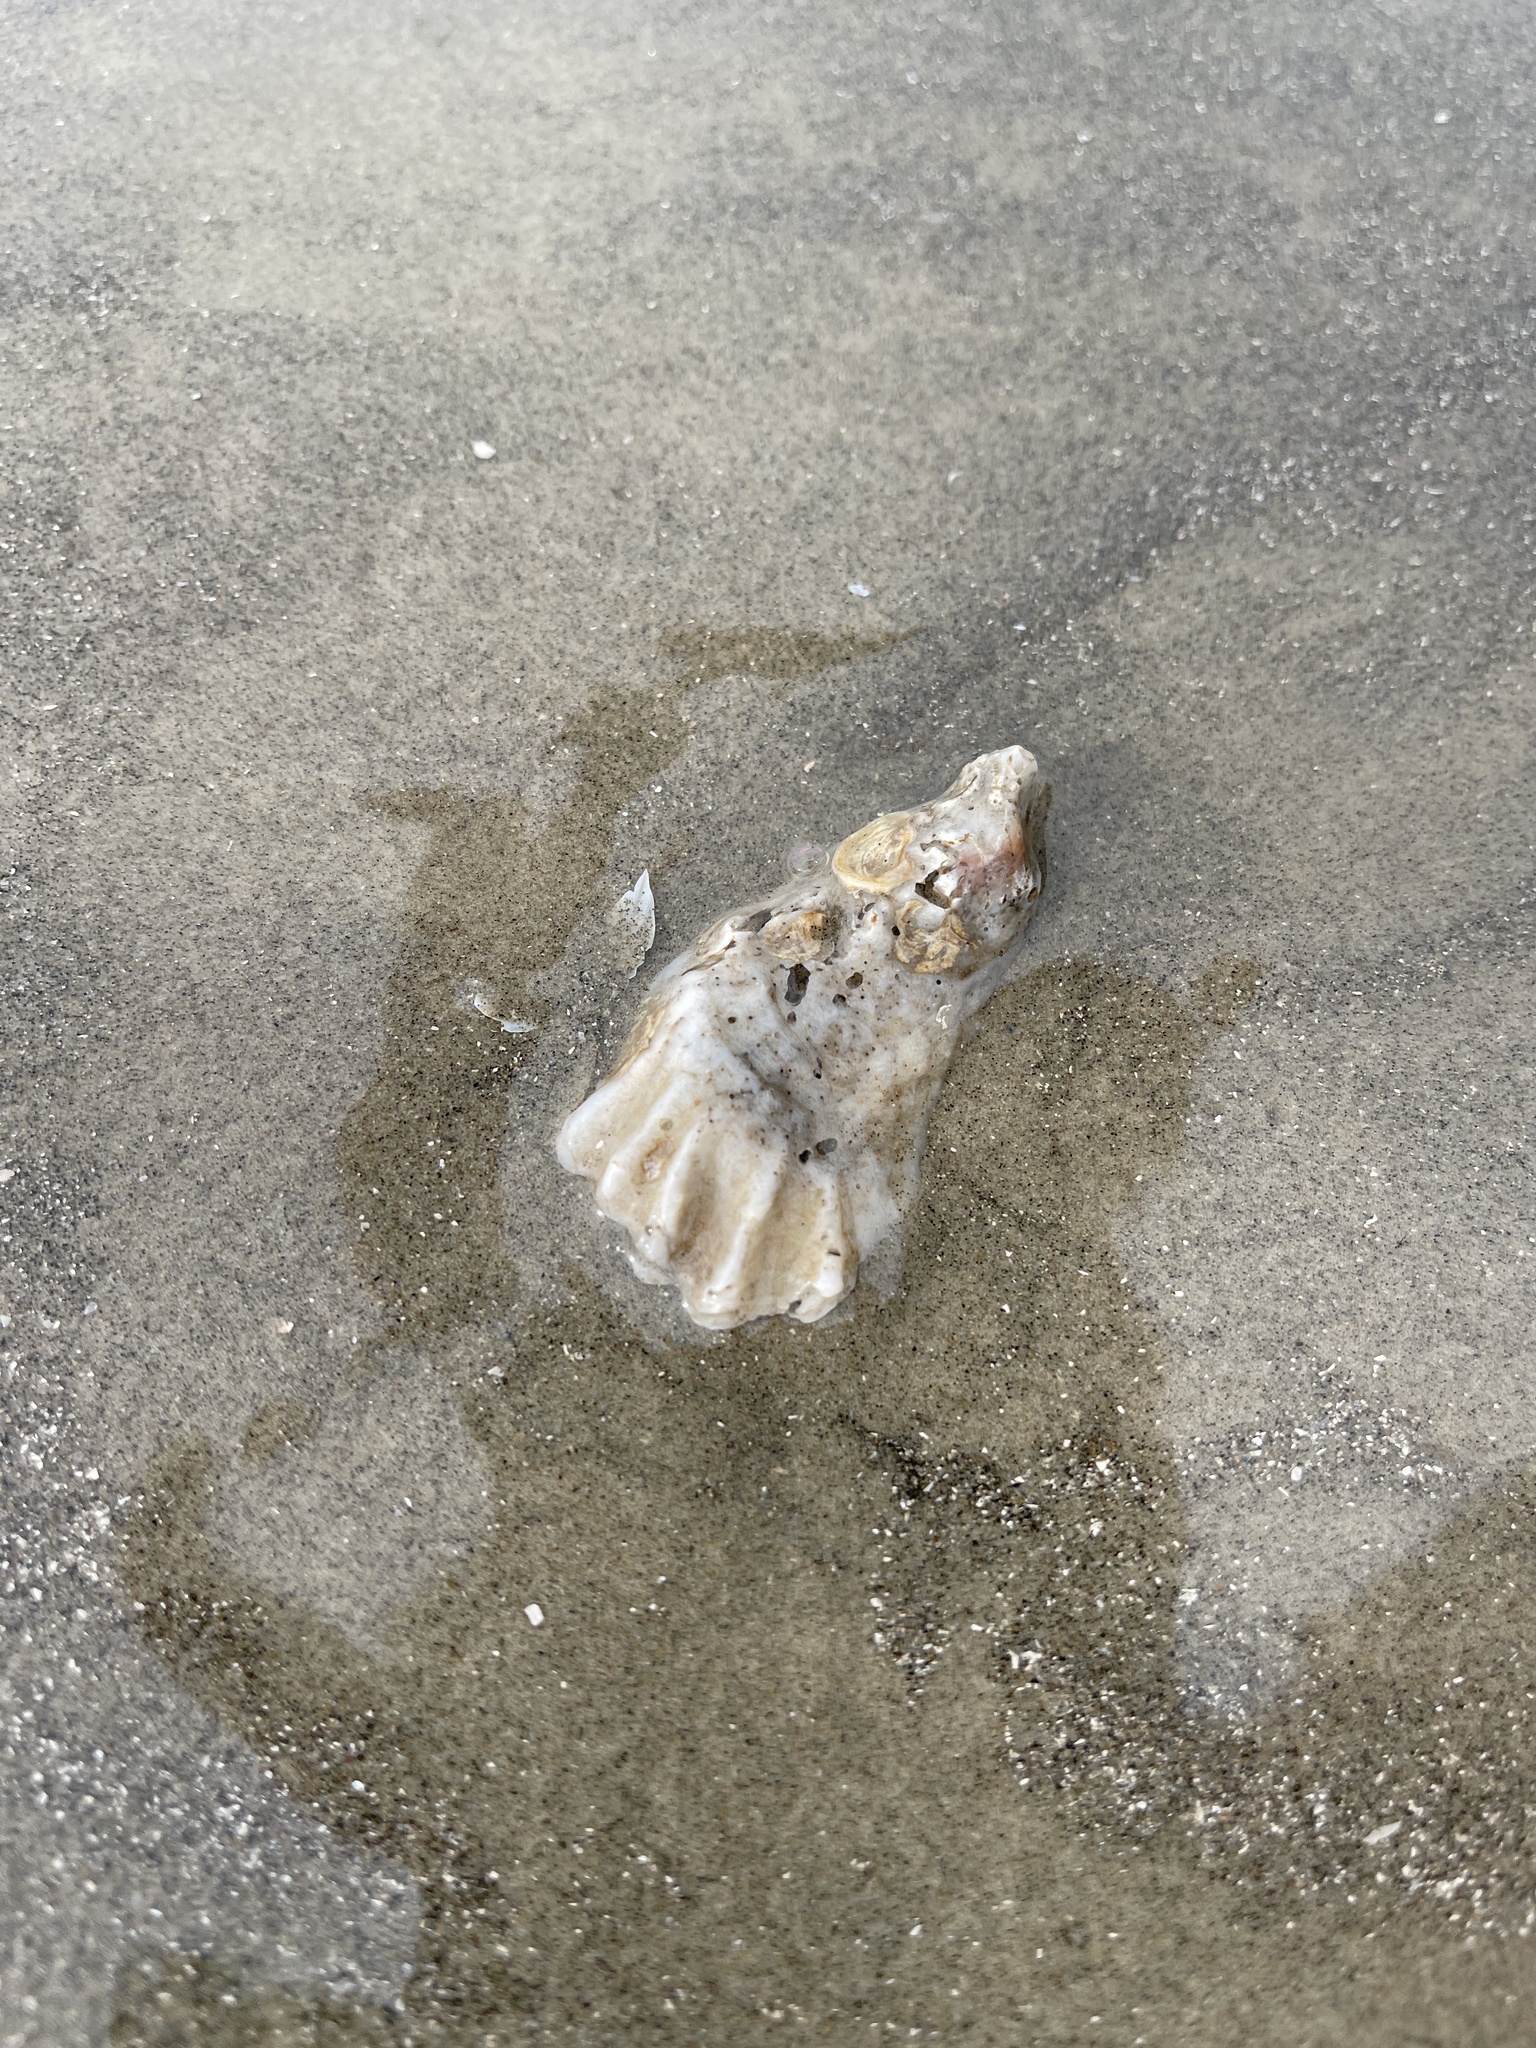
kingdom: Animalia
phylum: Mollusca
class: Bivalvia
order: Ostreida
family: Ostreidae
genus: Crassostrea
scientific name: Crassostrea virginica
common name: American oyster
